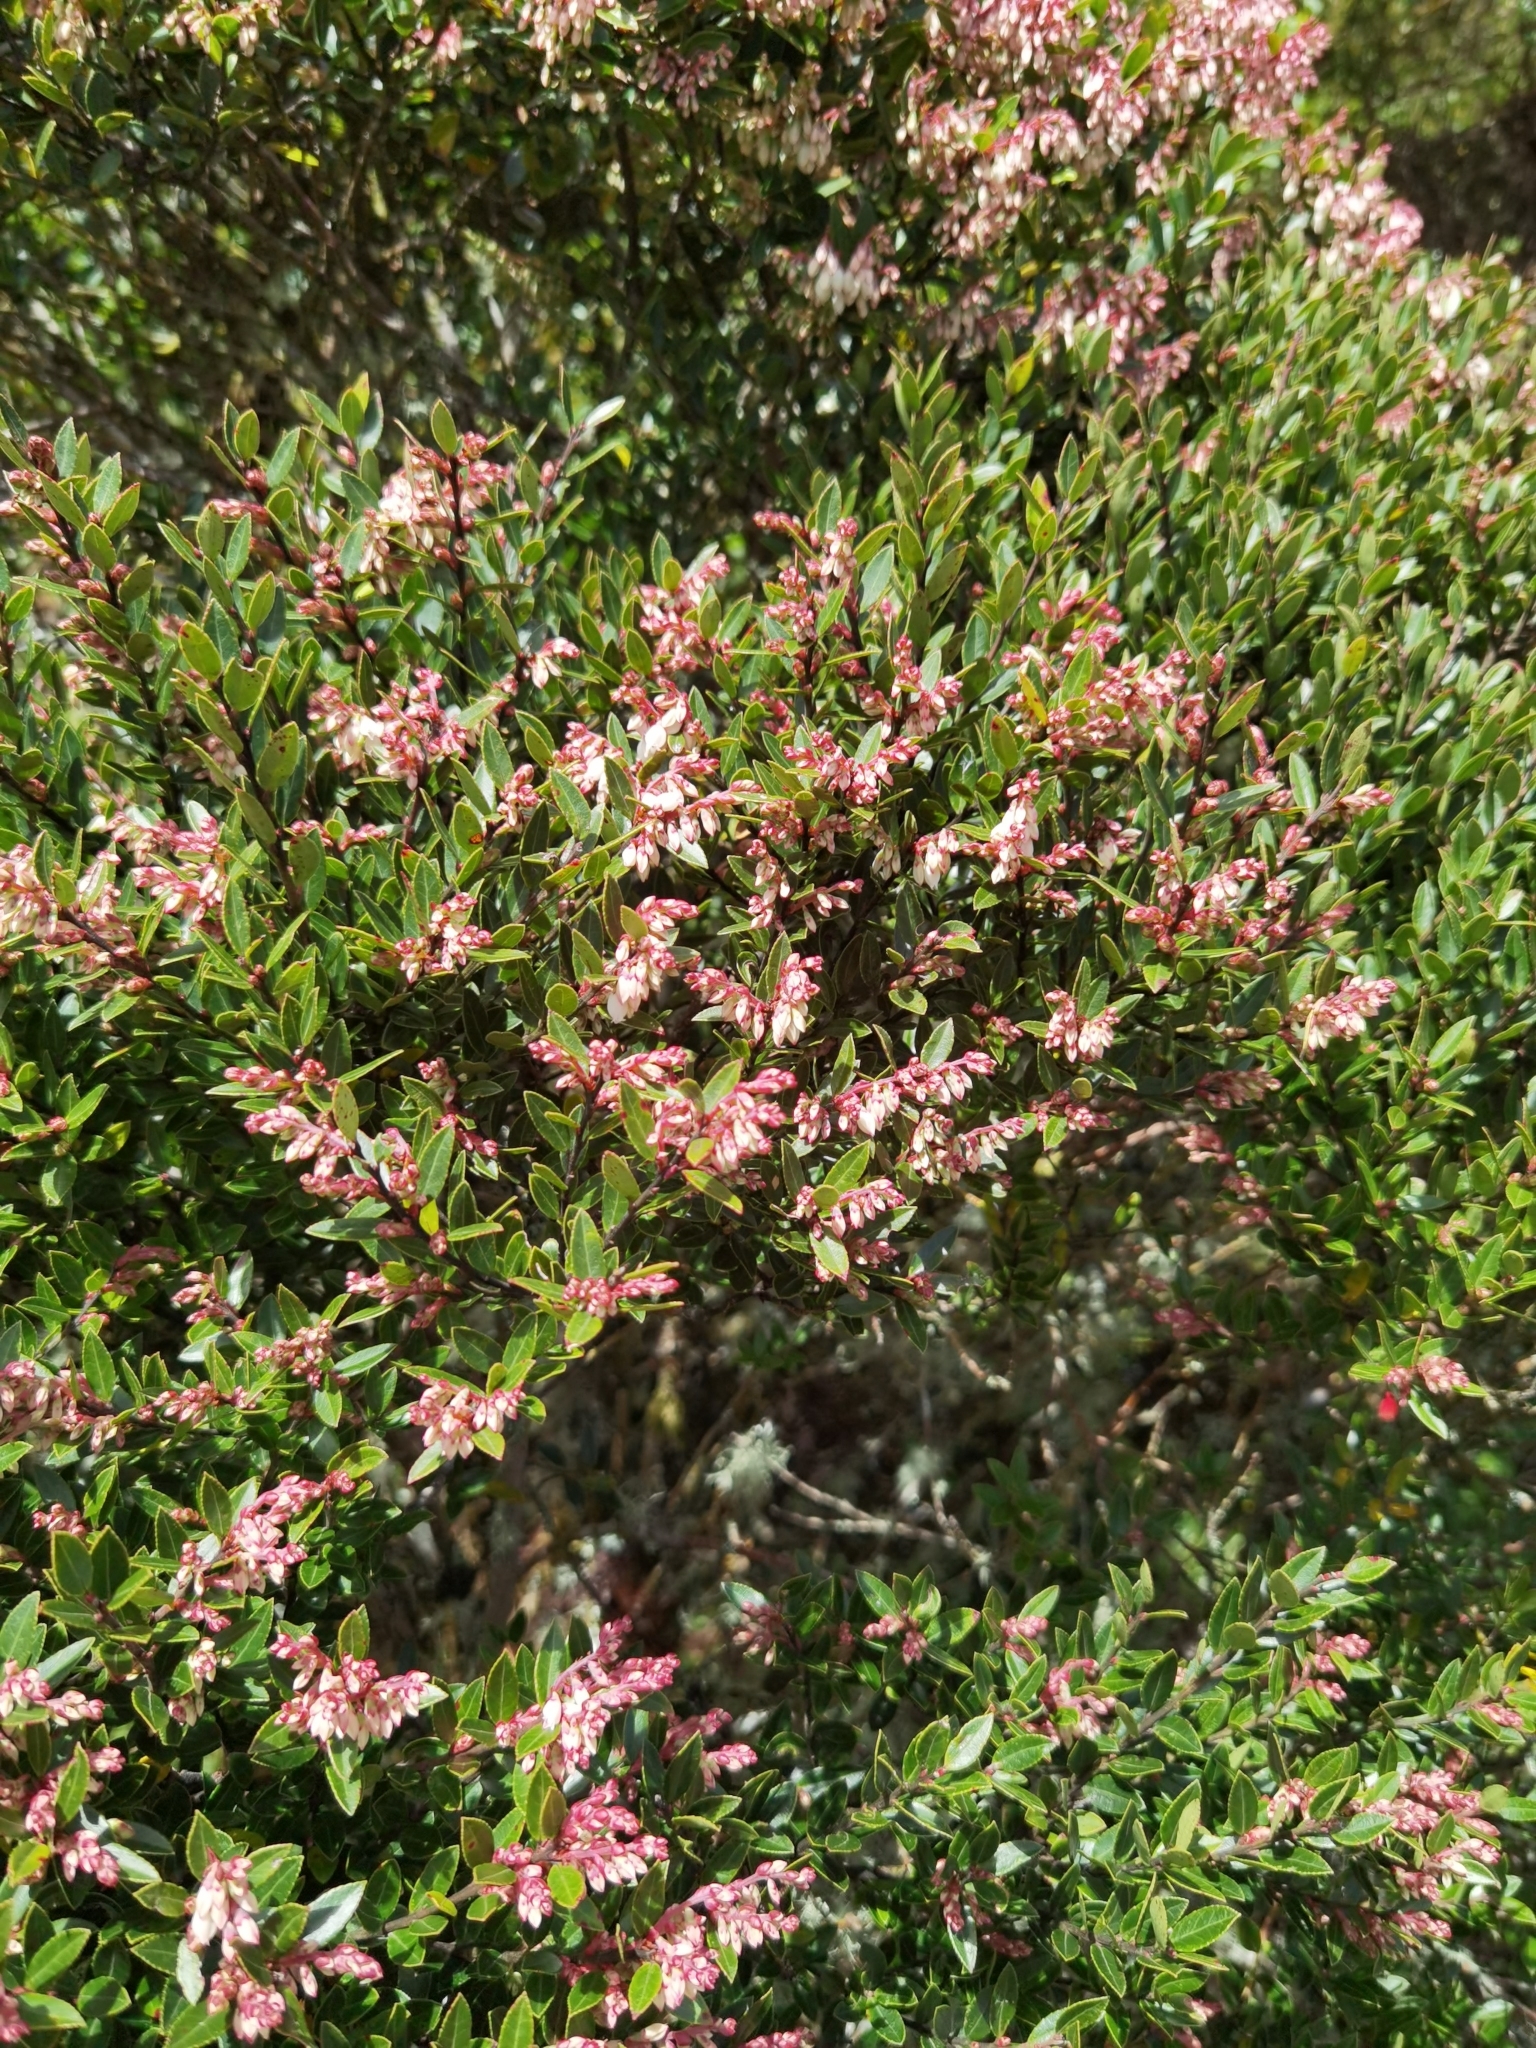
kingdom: Plantae
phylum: Tracheophyta
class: Magnoliopsida
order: Ericales
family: Ericaceae
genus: Vaccinium
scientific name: Vaccinium consanguineum
